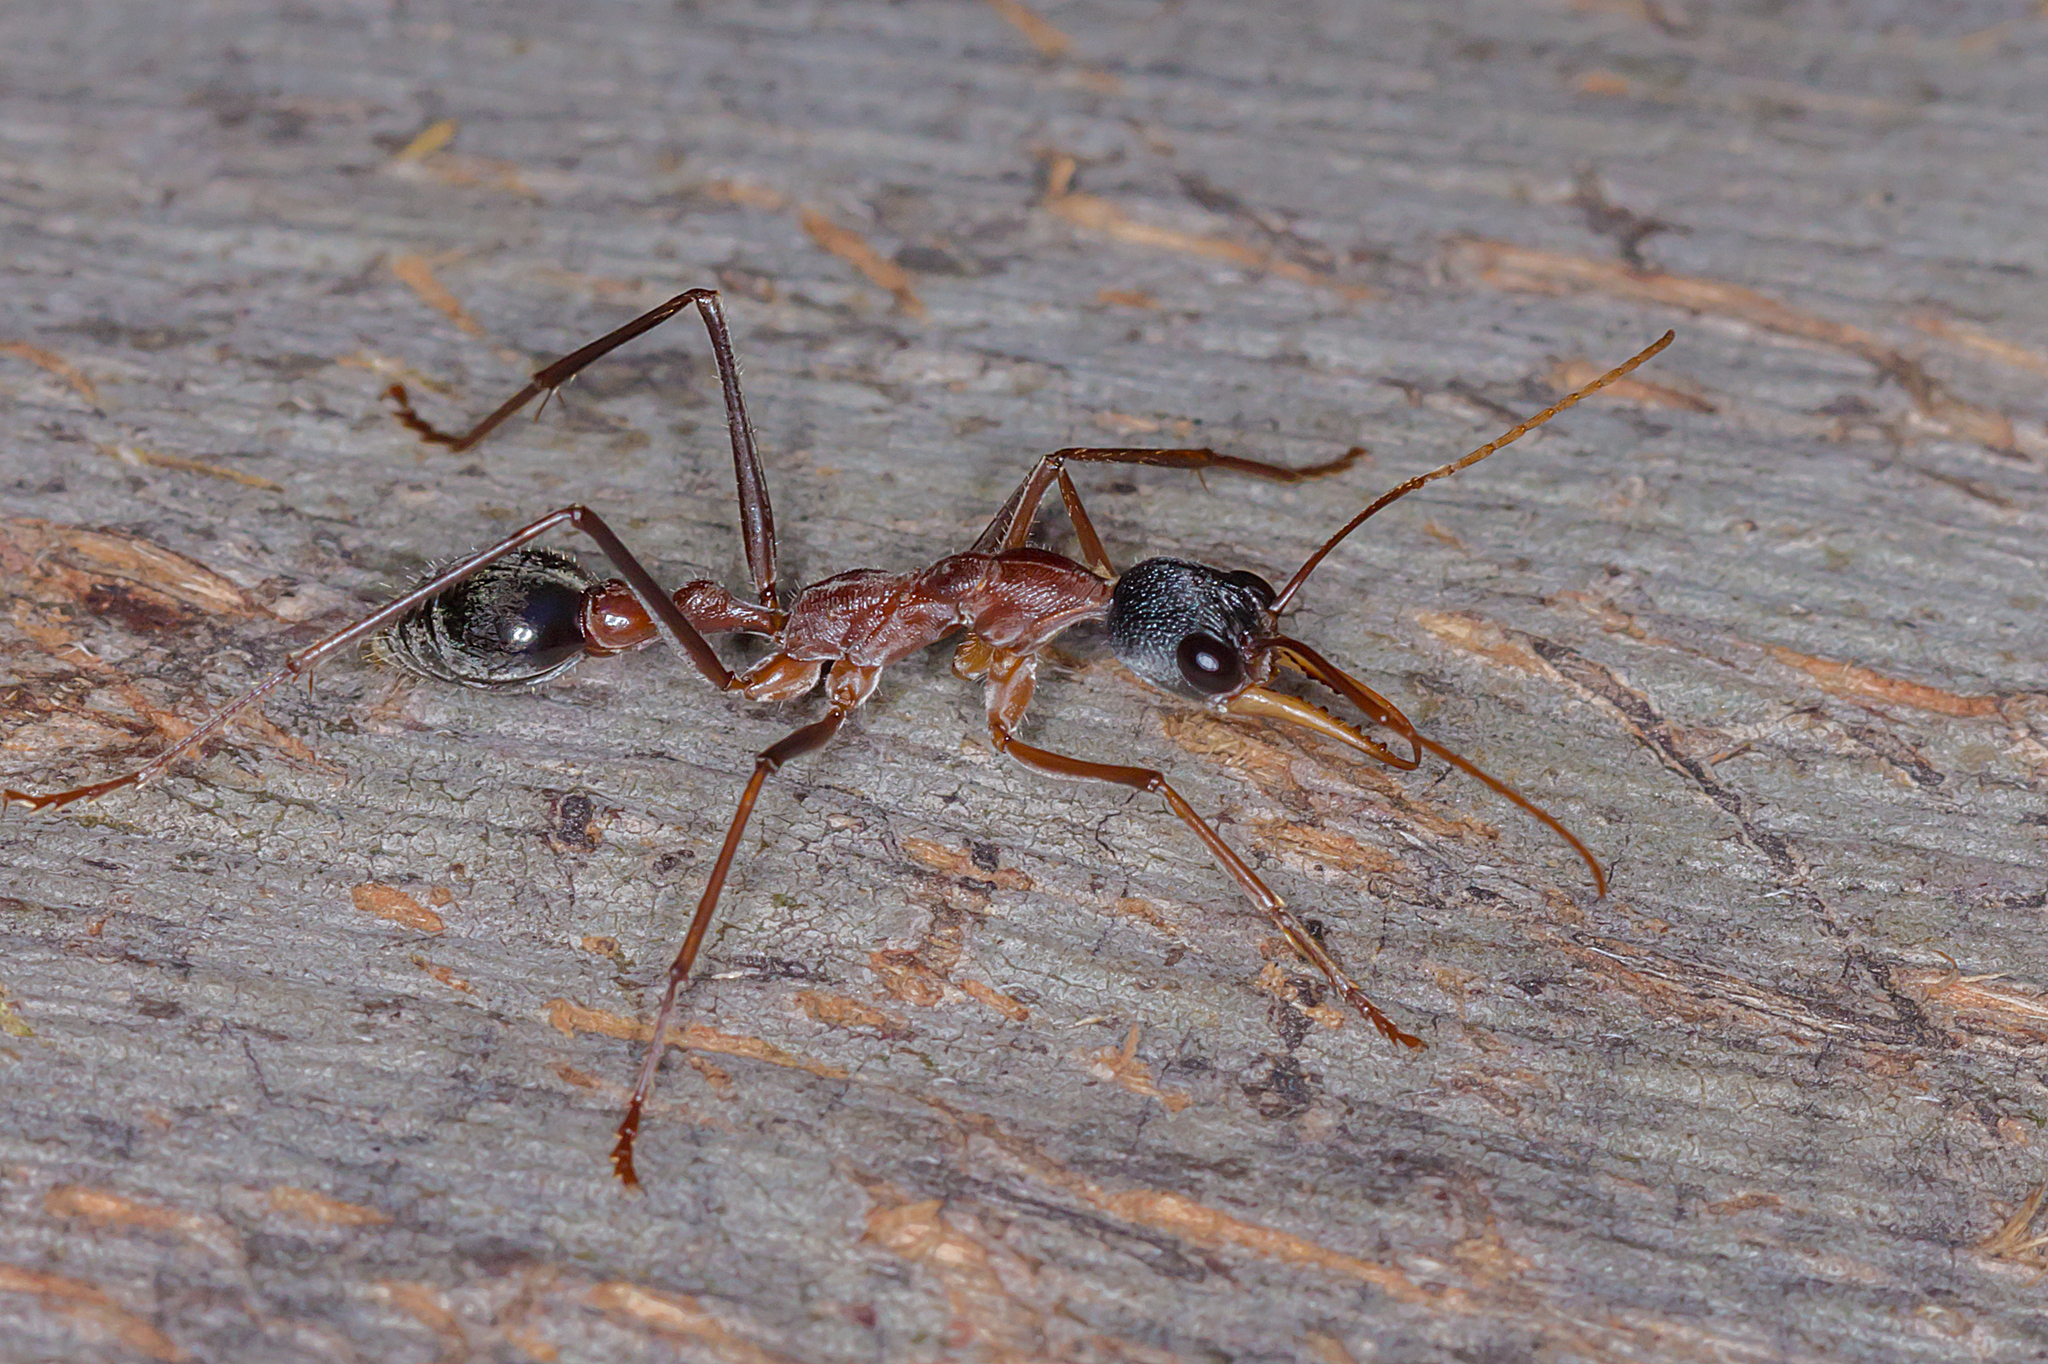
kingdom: Animalia
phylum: Arthropoda
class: Insecta
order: Hymenoptera
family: Formicidae
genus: Myrmecia
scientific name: Myrmecia nigriceps
